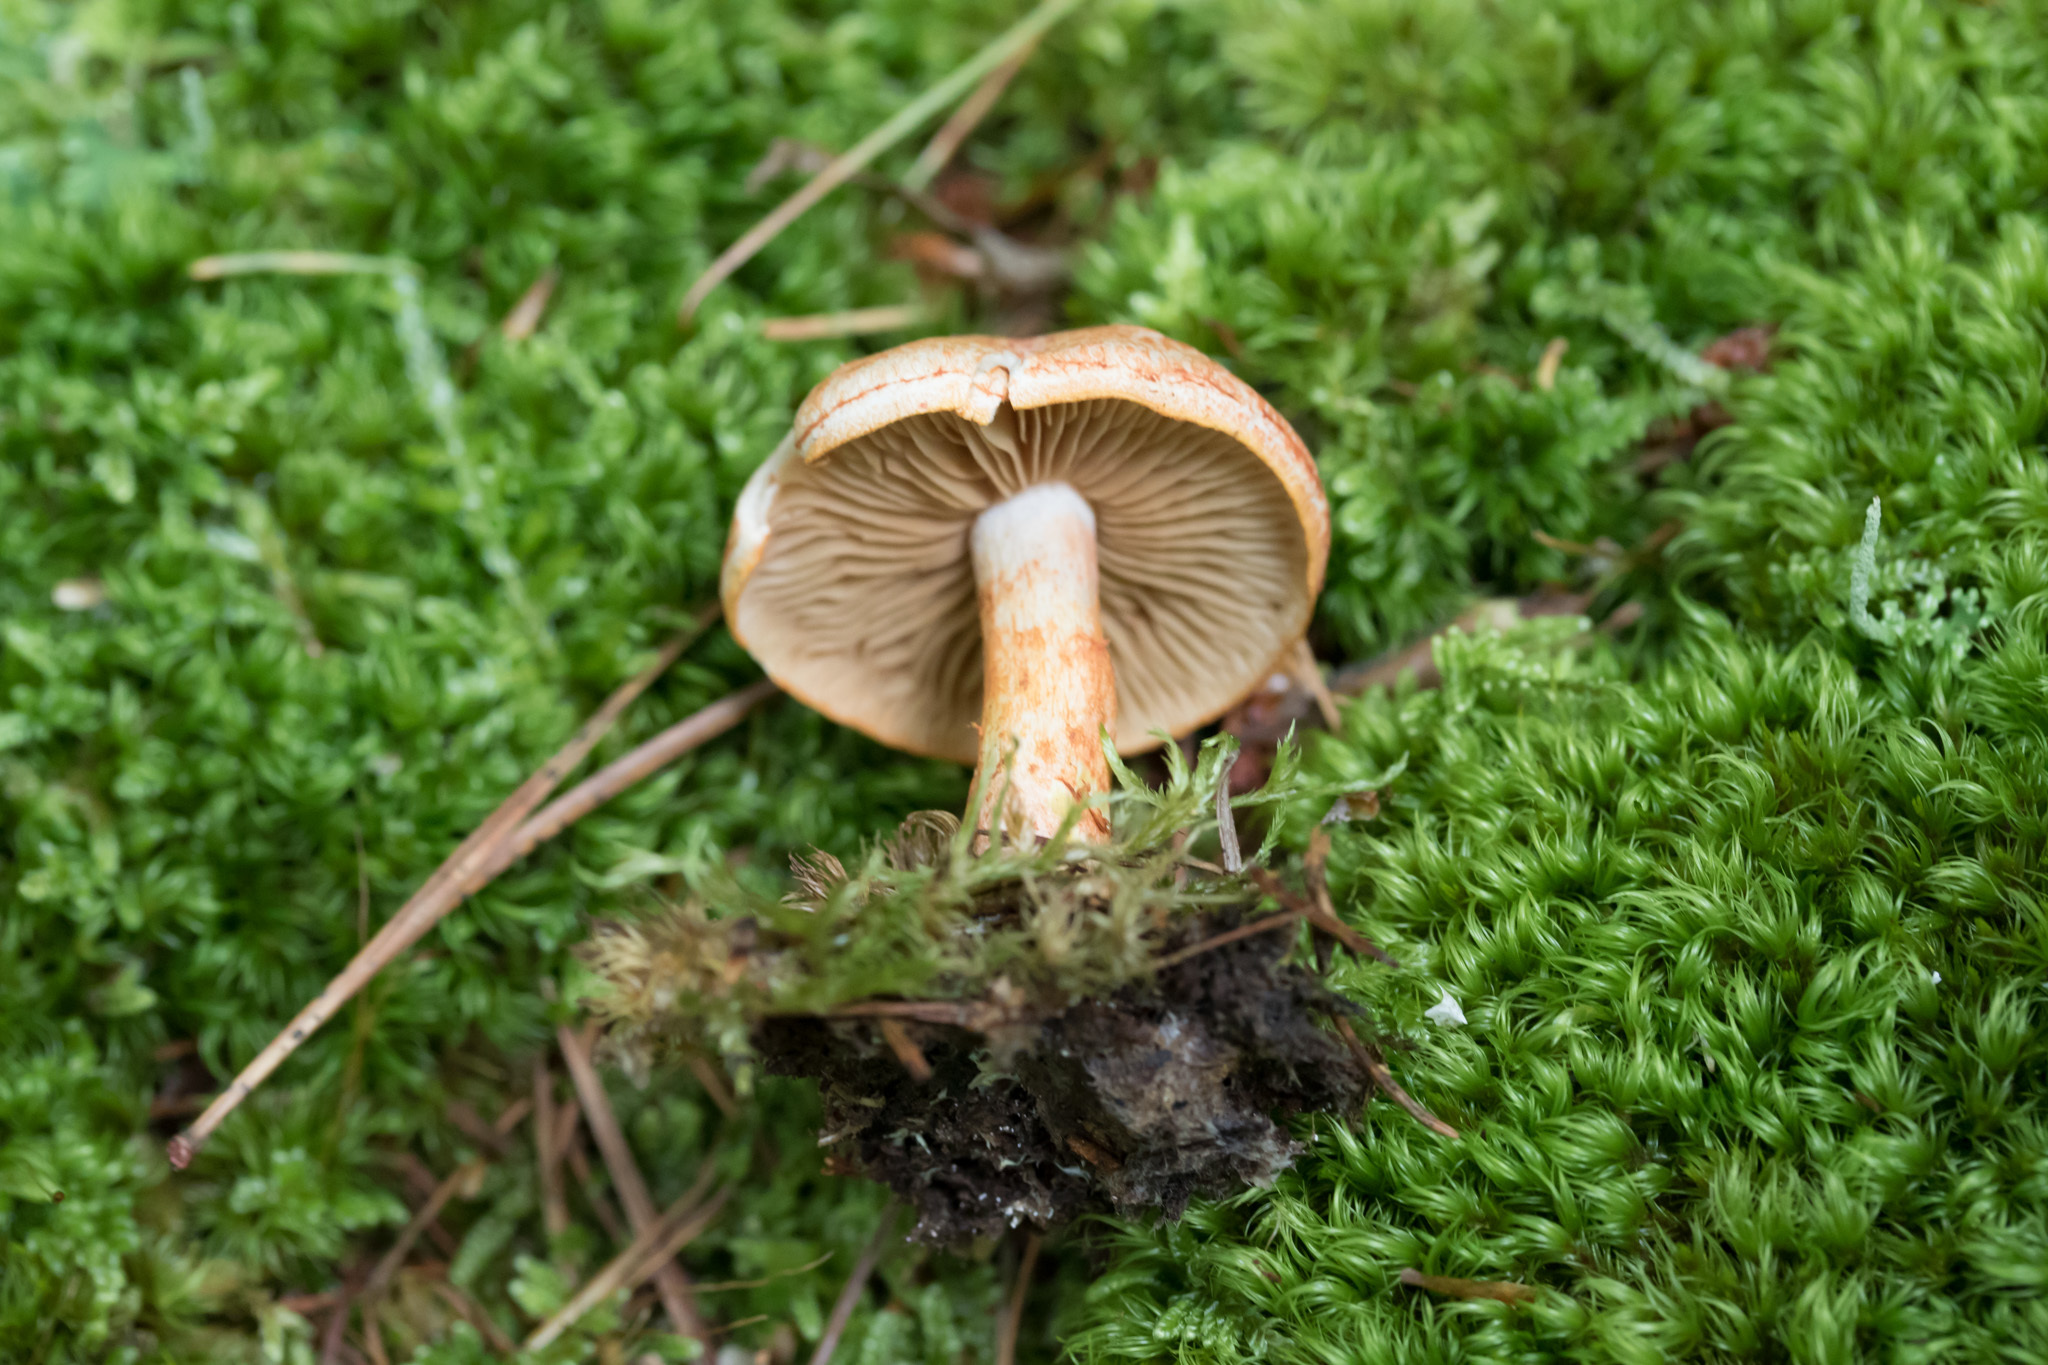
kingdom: Fungi
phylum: Basidiomycota
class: Agaricomycetes
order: Agaricales
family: Cortinariaceae
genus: Cortinarius
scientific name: Cortinarius bolaris
